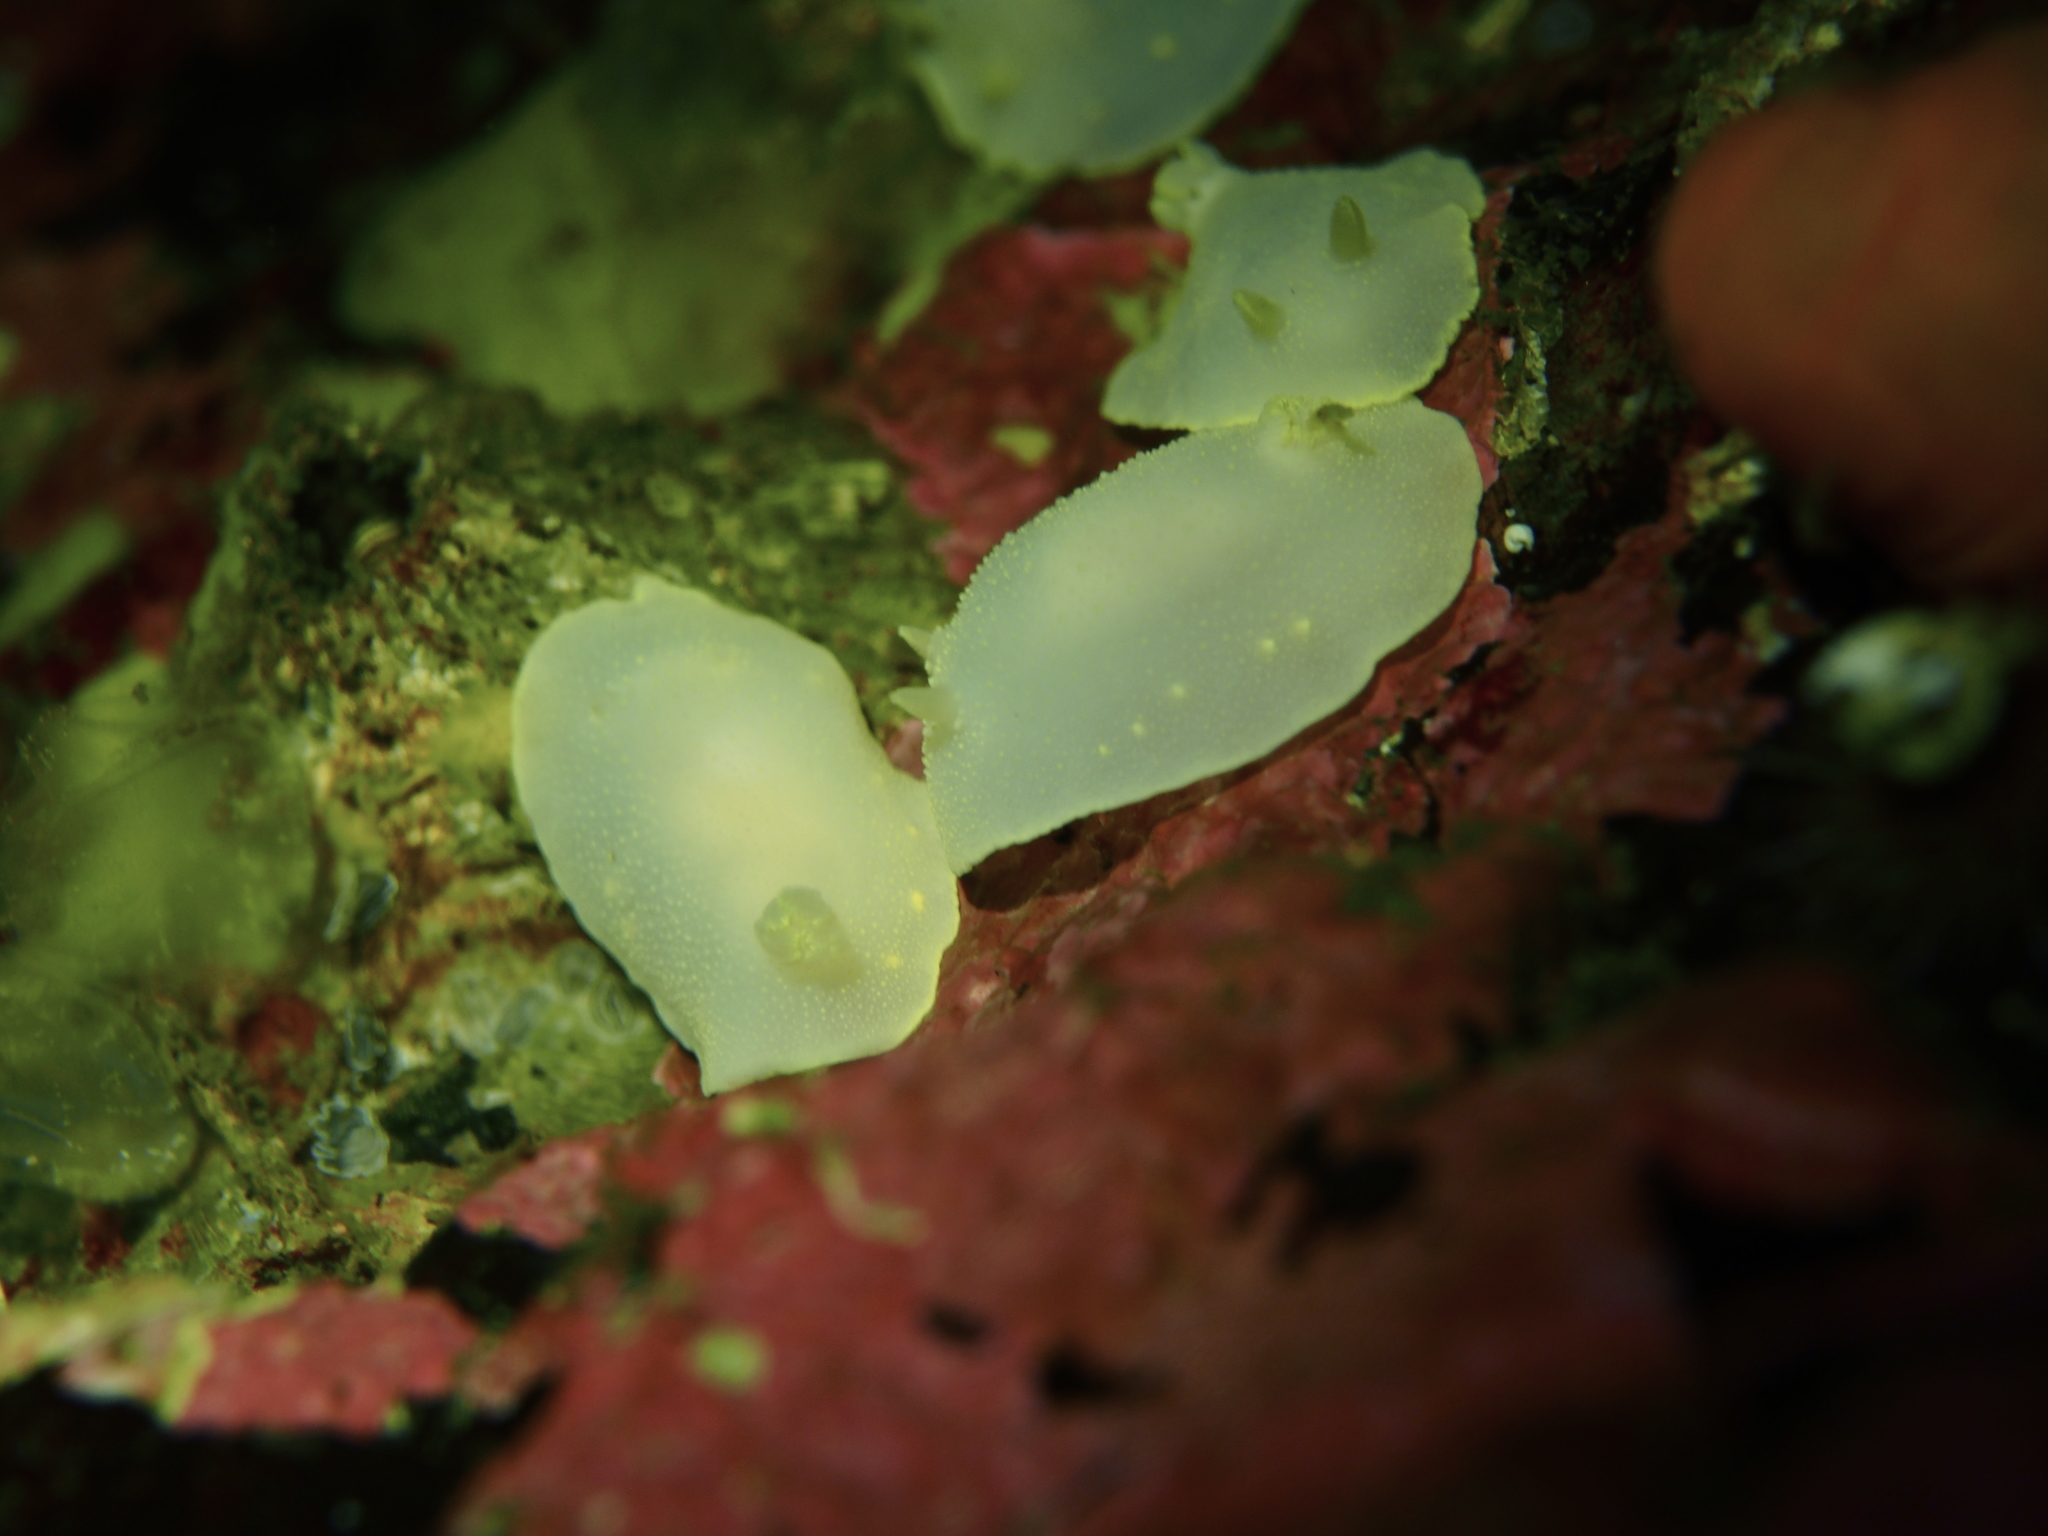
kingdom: Animalia
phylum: Mollusca
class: Gastropoda
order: Nudibranchia
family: Cadlinidae
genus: Cadlina
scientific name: Cadlina laevis
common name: White atlantic cadlina
